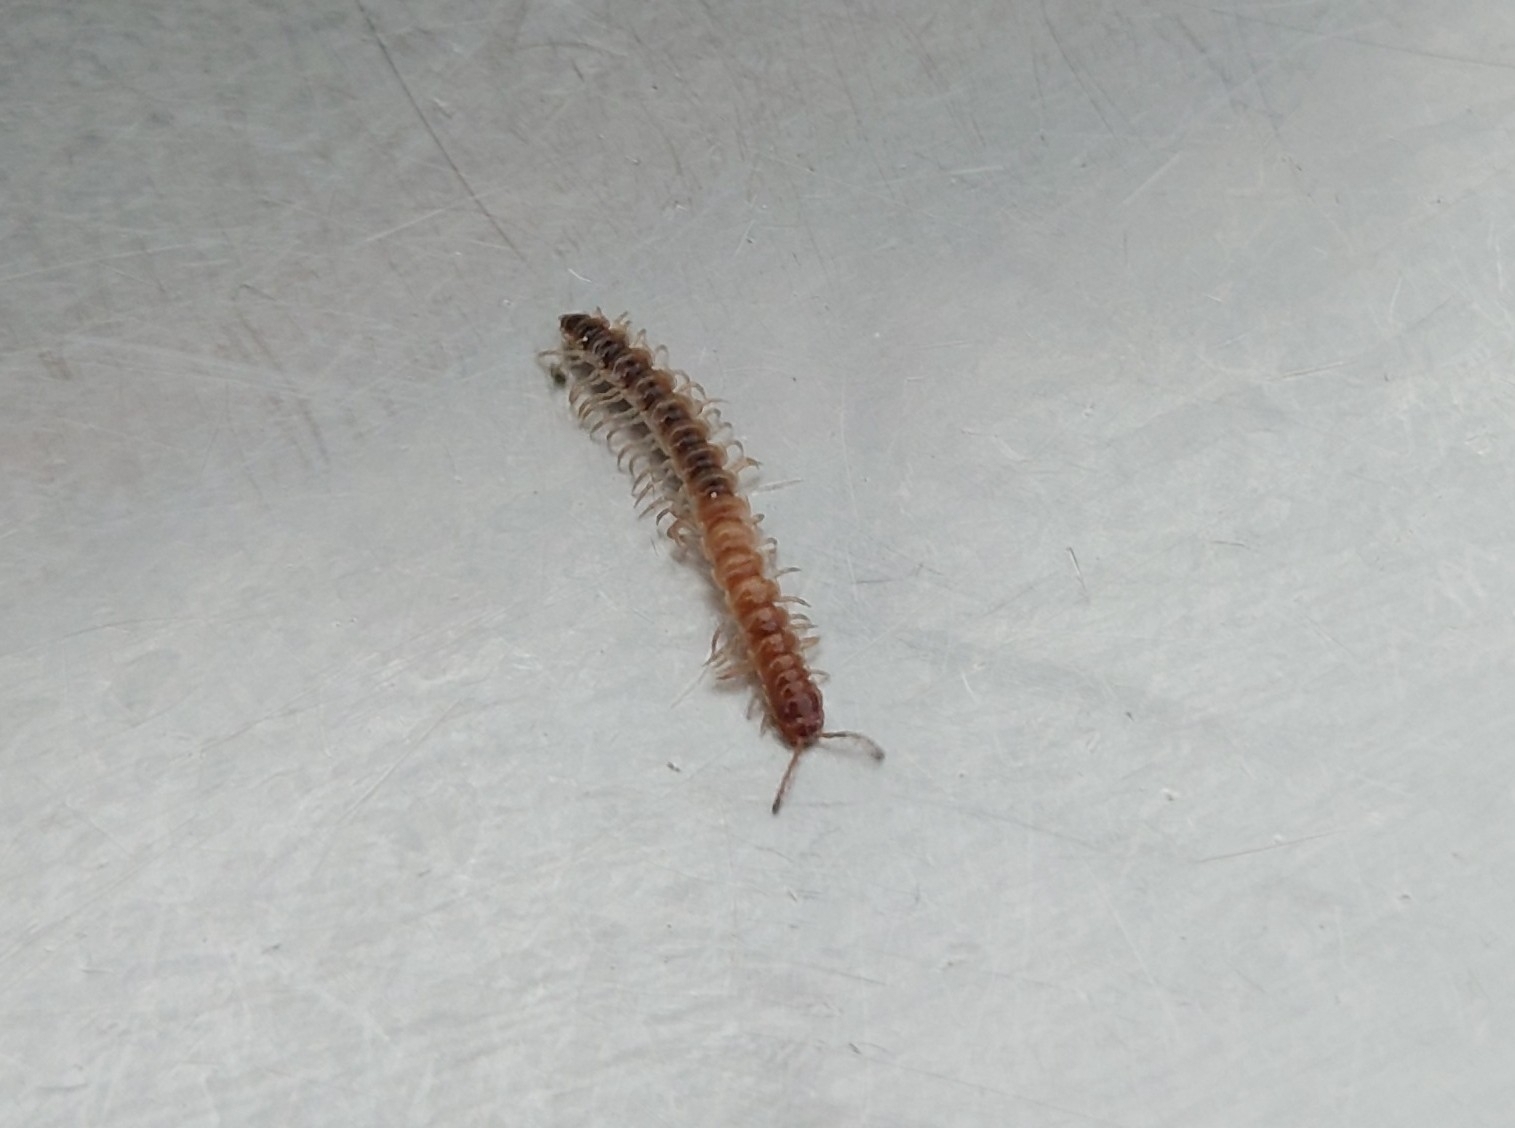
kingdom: Animalia
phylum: Arthropoda
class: Diplopoda
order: Polydesmida
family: Paradoxosomatidae
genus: Oxidus
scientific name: Oxidus gracilis
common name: Greenhouse millipede
